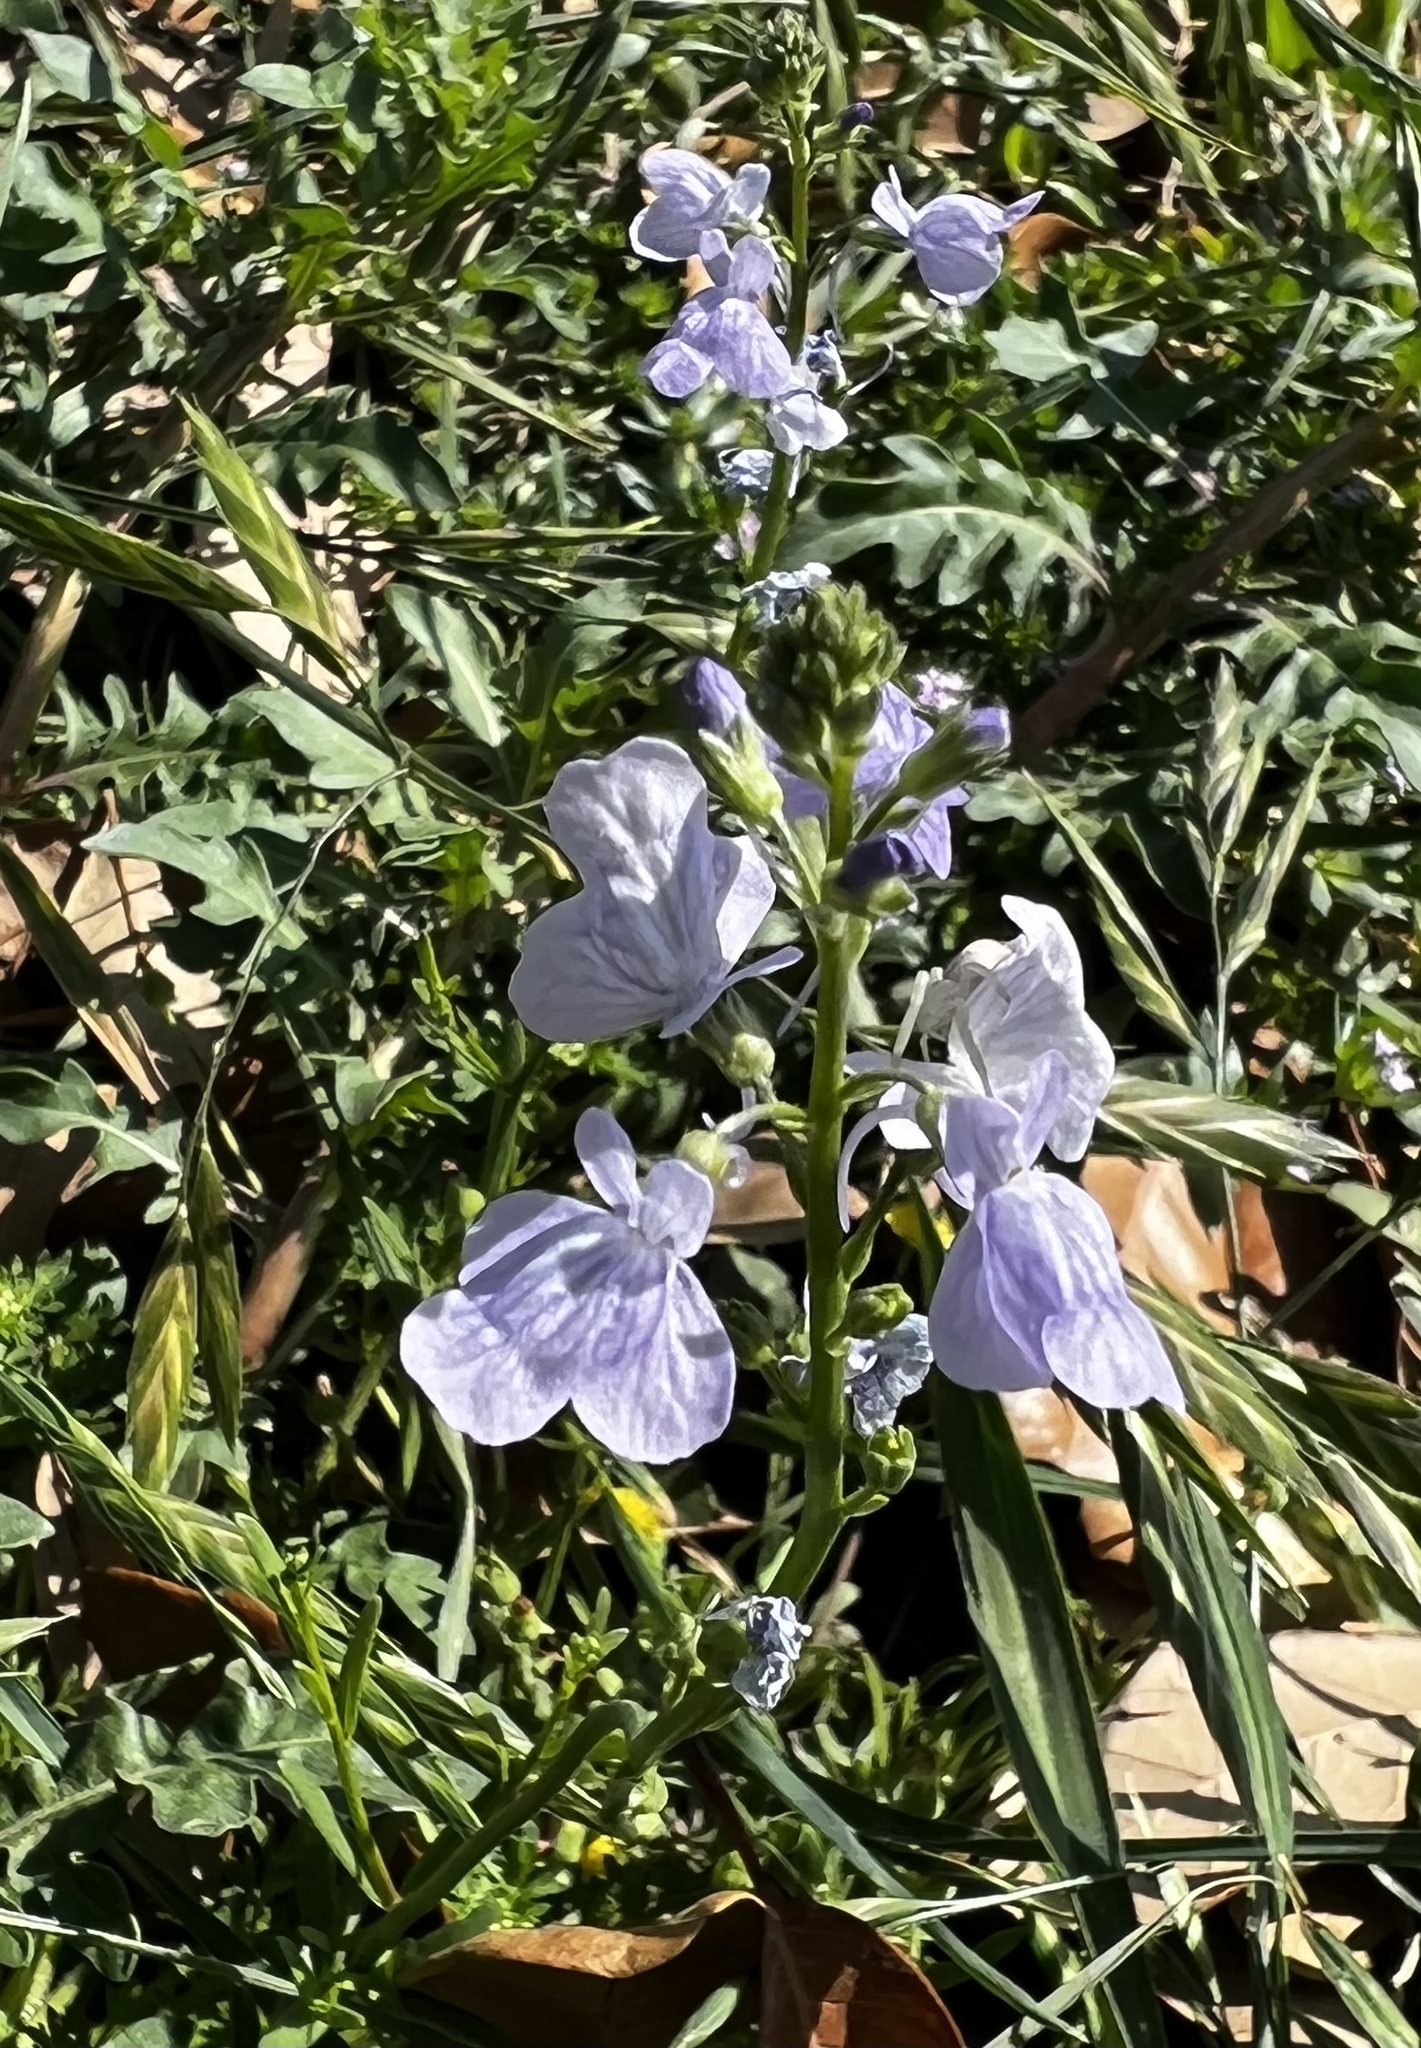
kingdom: Plantae
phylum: Tracheophyta
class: Magnoliopsida
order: Lamiales
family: Plantaginaceae
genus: Nuttallanthus
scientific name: Nuttallanthus texanus
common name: Texas toadflax
